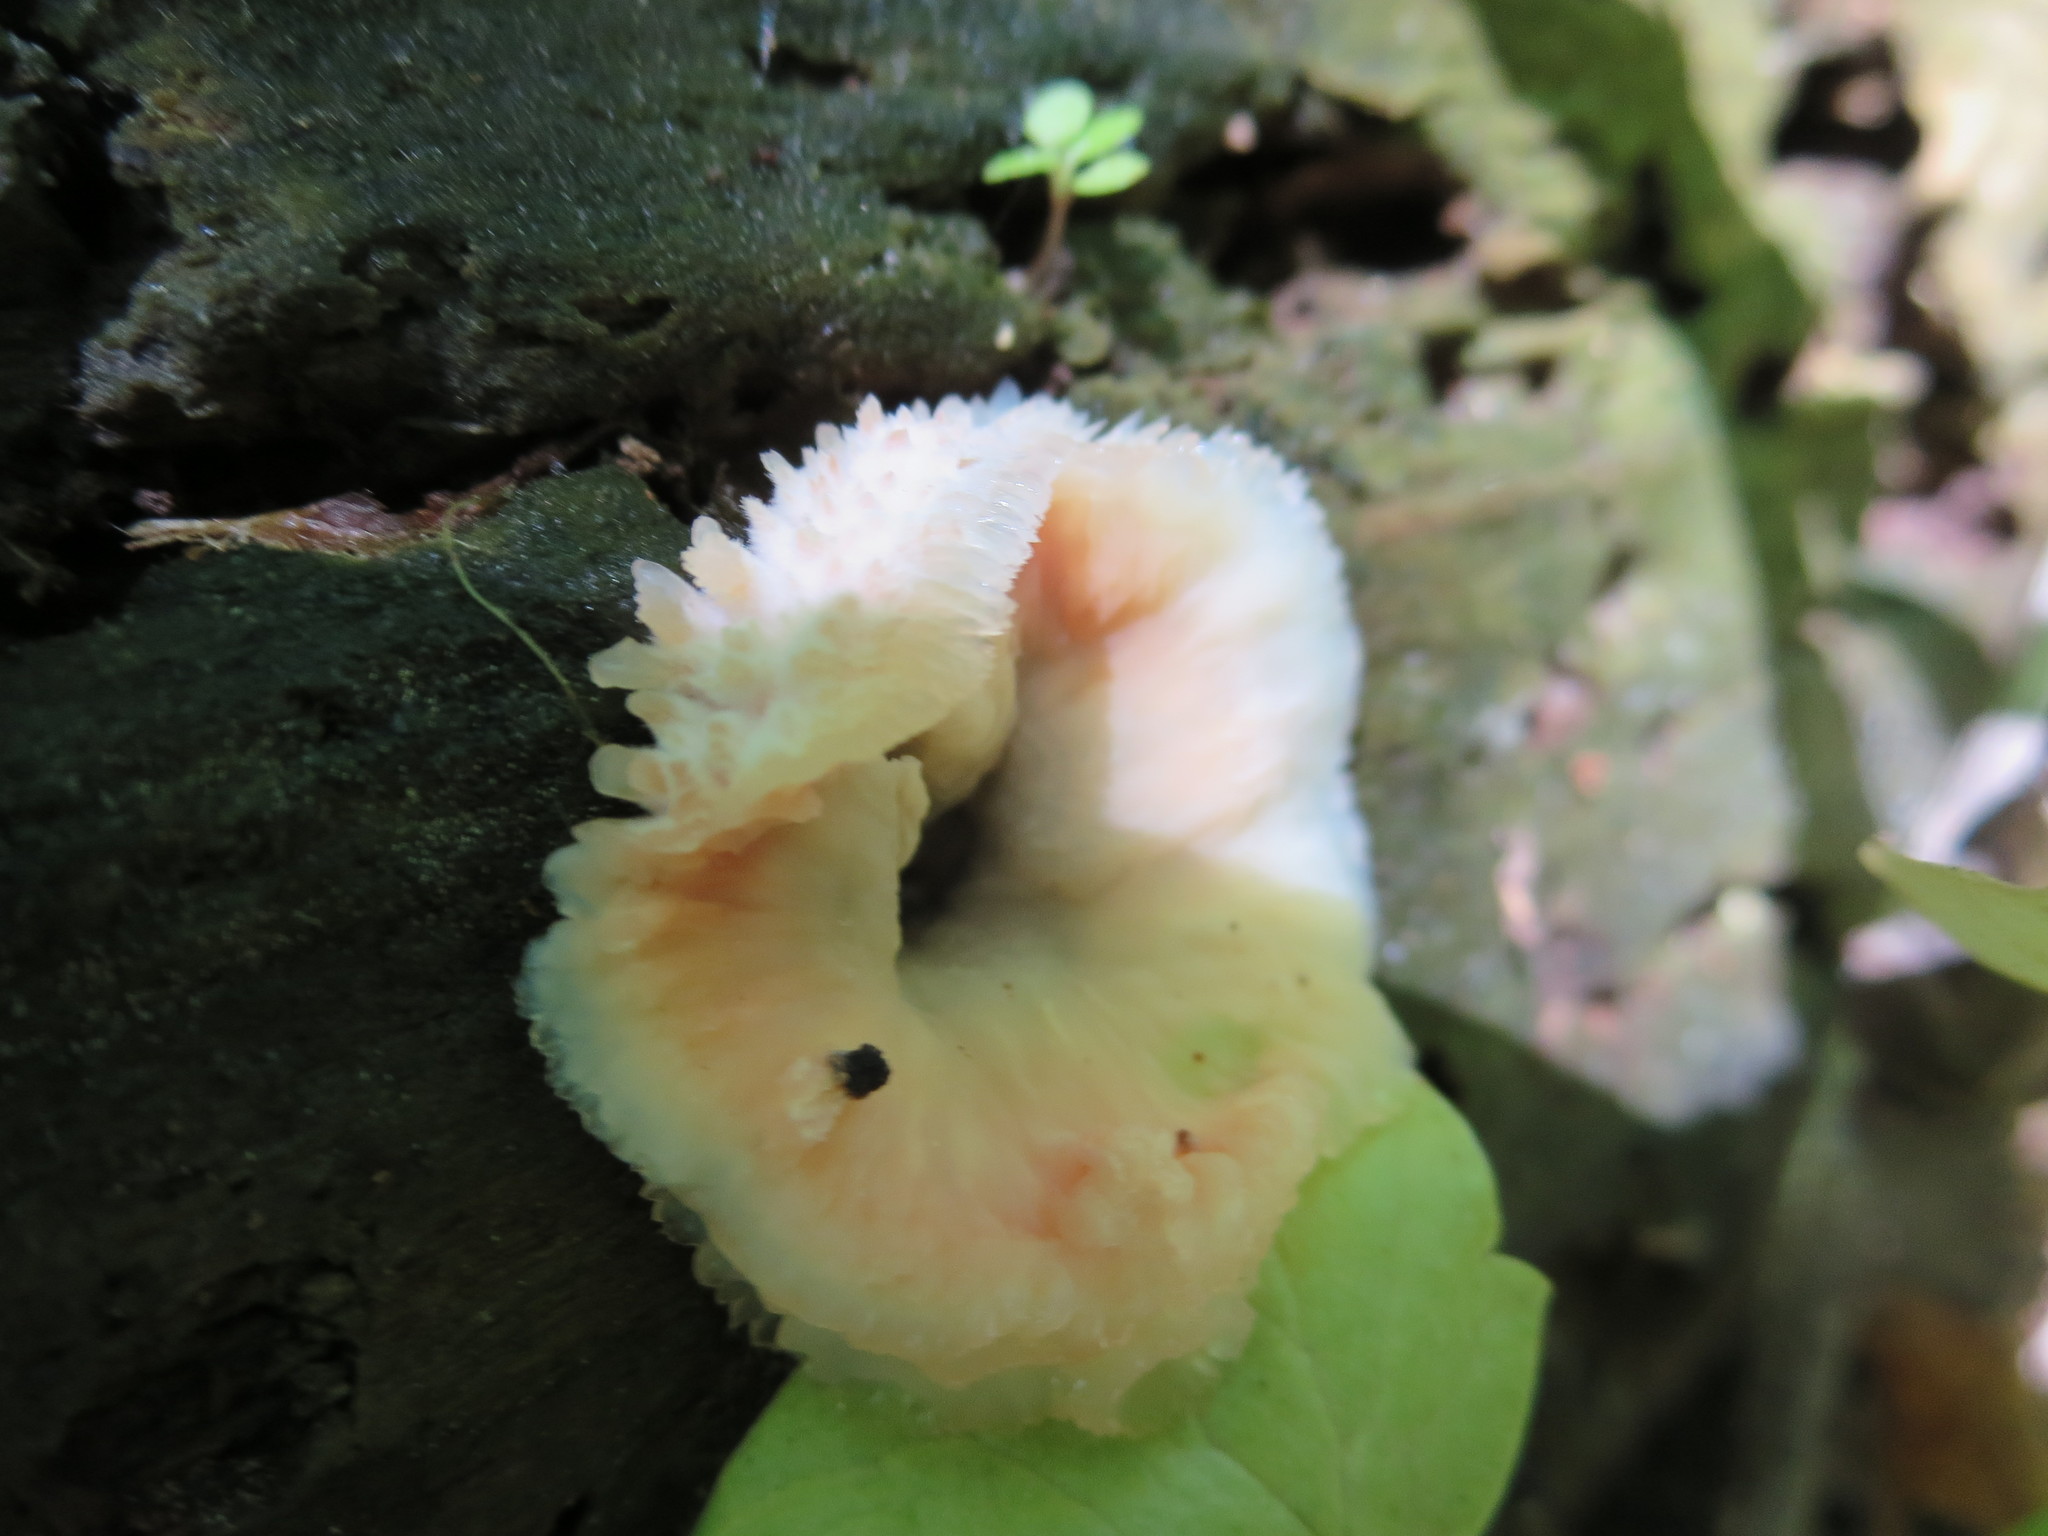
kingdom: Fungi
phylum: Basidiomycota
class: Agaricomycetes
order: Polyporales
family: Meruliaceae
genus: Phlebia
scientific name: Phlebia tremellosa
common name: Jelly rot
